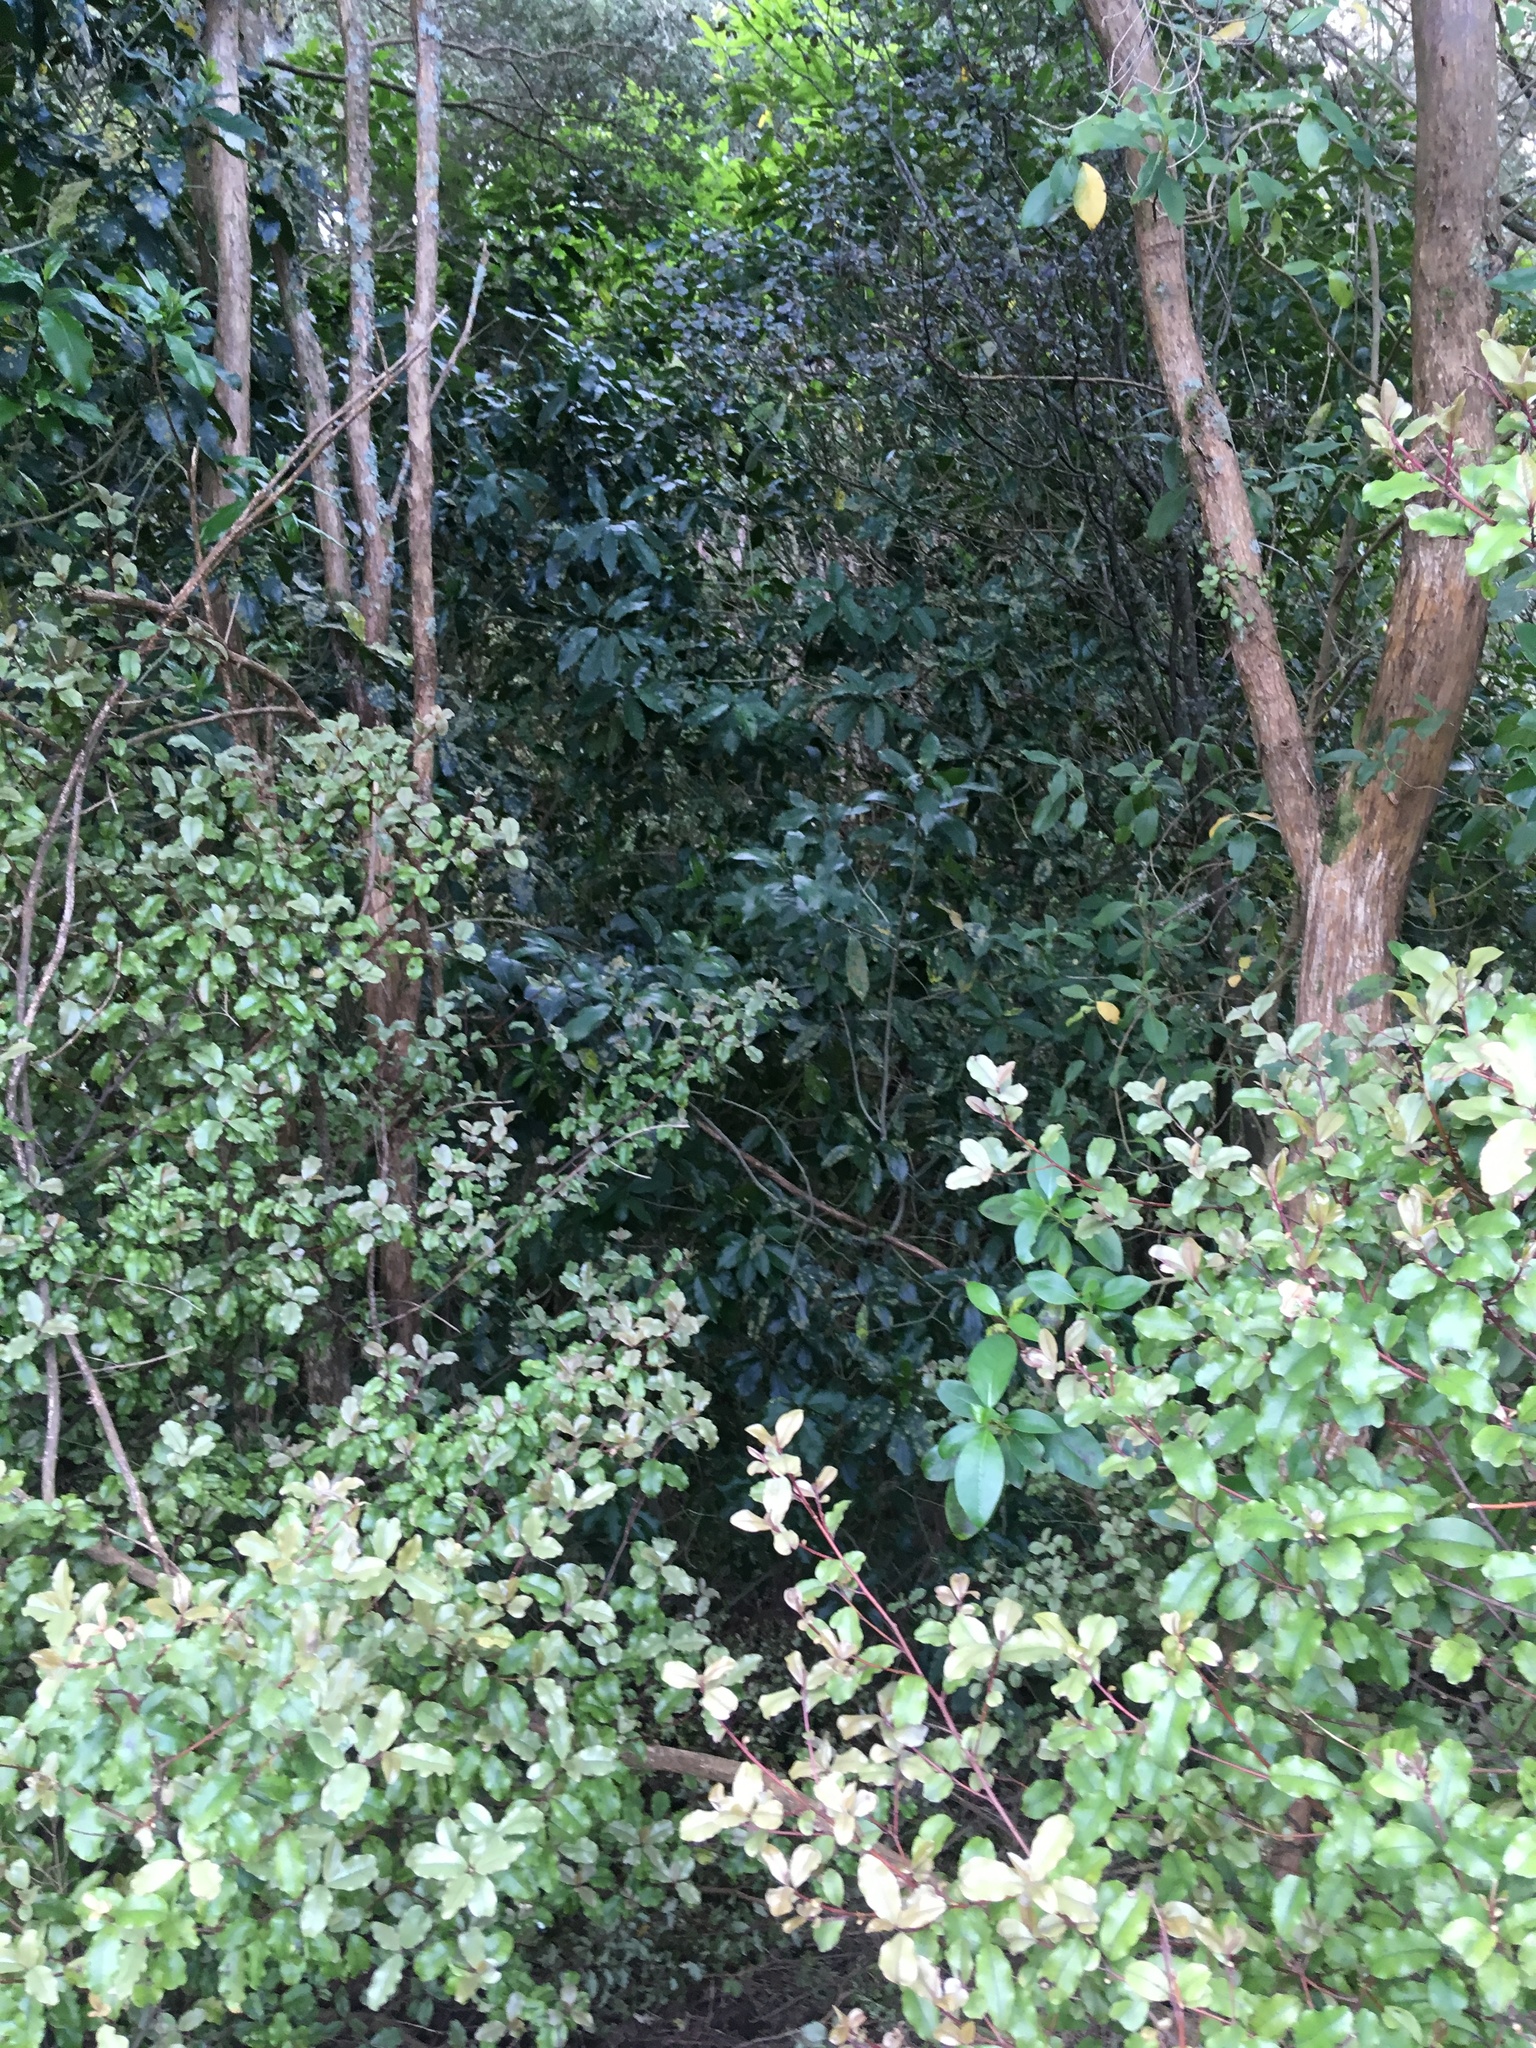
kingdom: Plantae
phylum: Tracheophyta
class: Magnoliopsida
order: Ericales
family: Primulaceae
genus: Myrsine
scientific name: Myrsine australis
